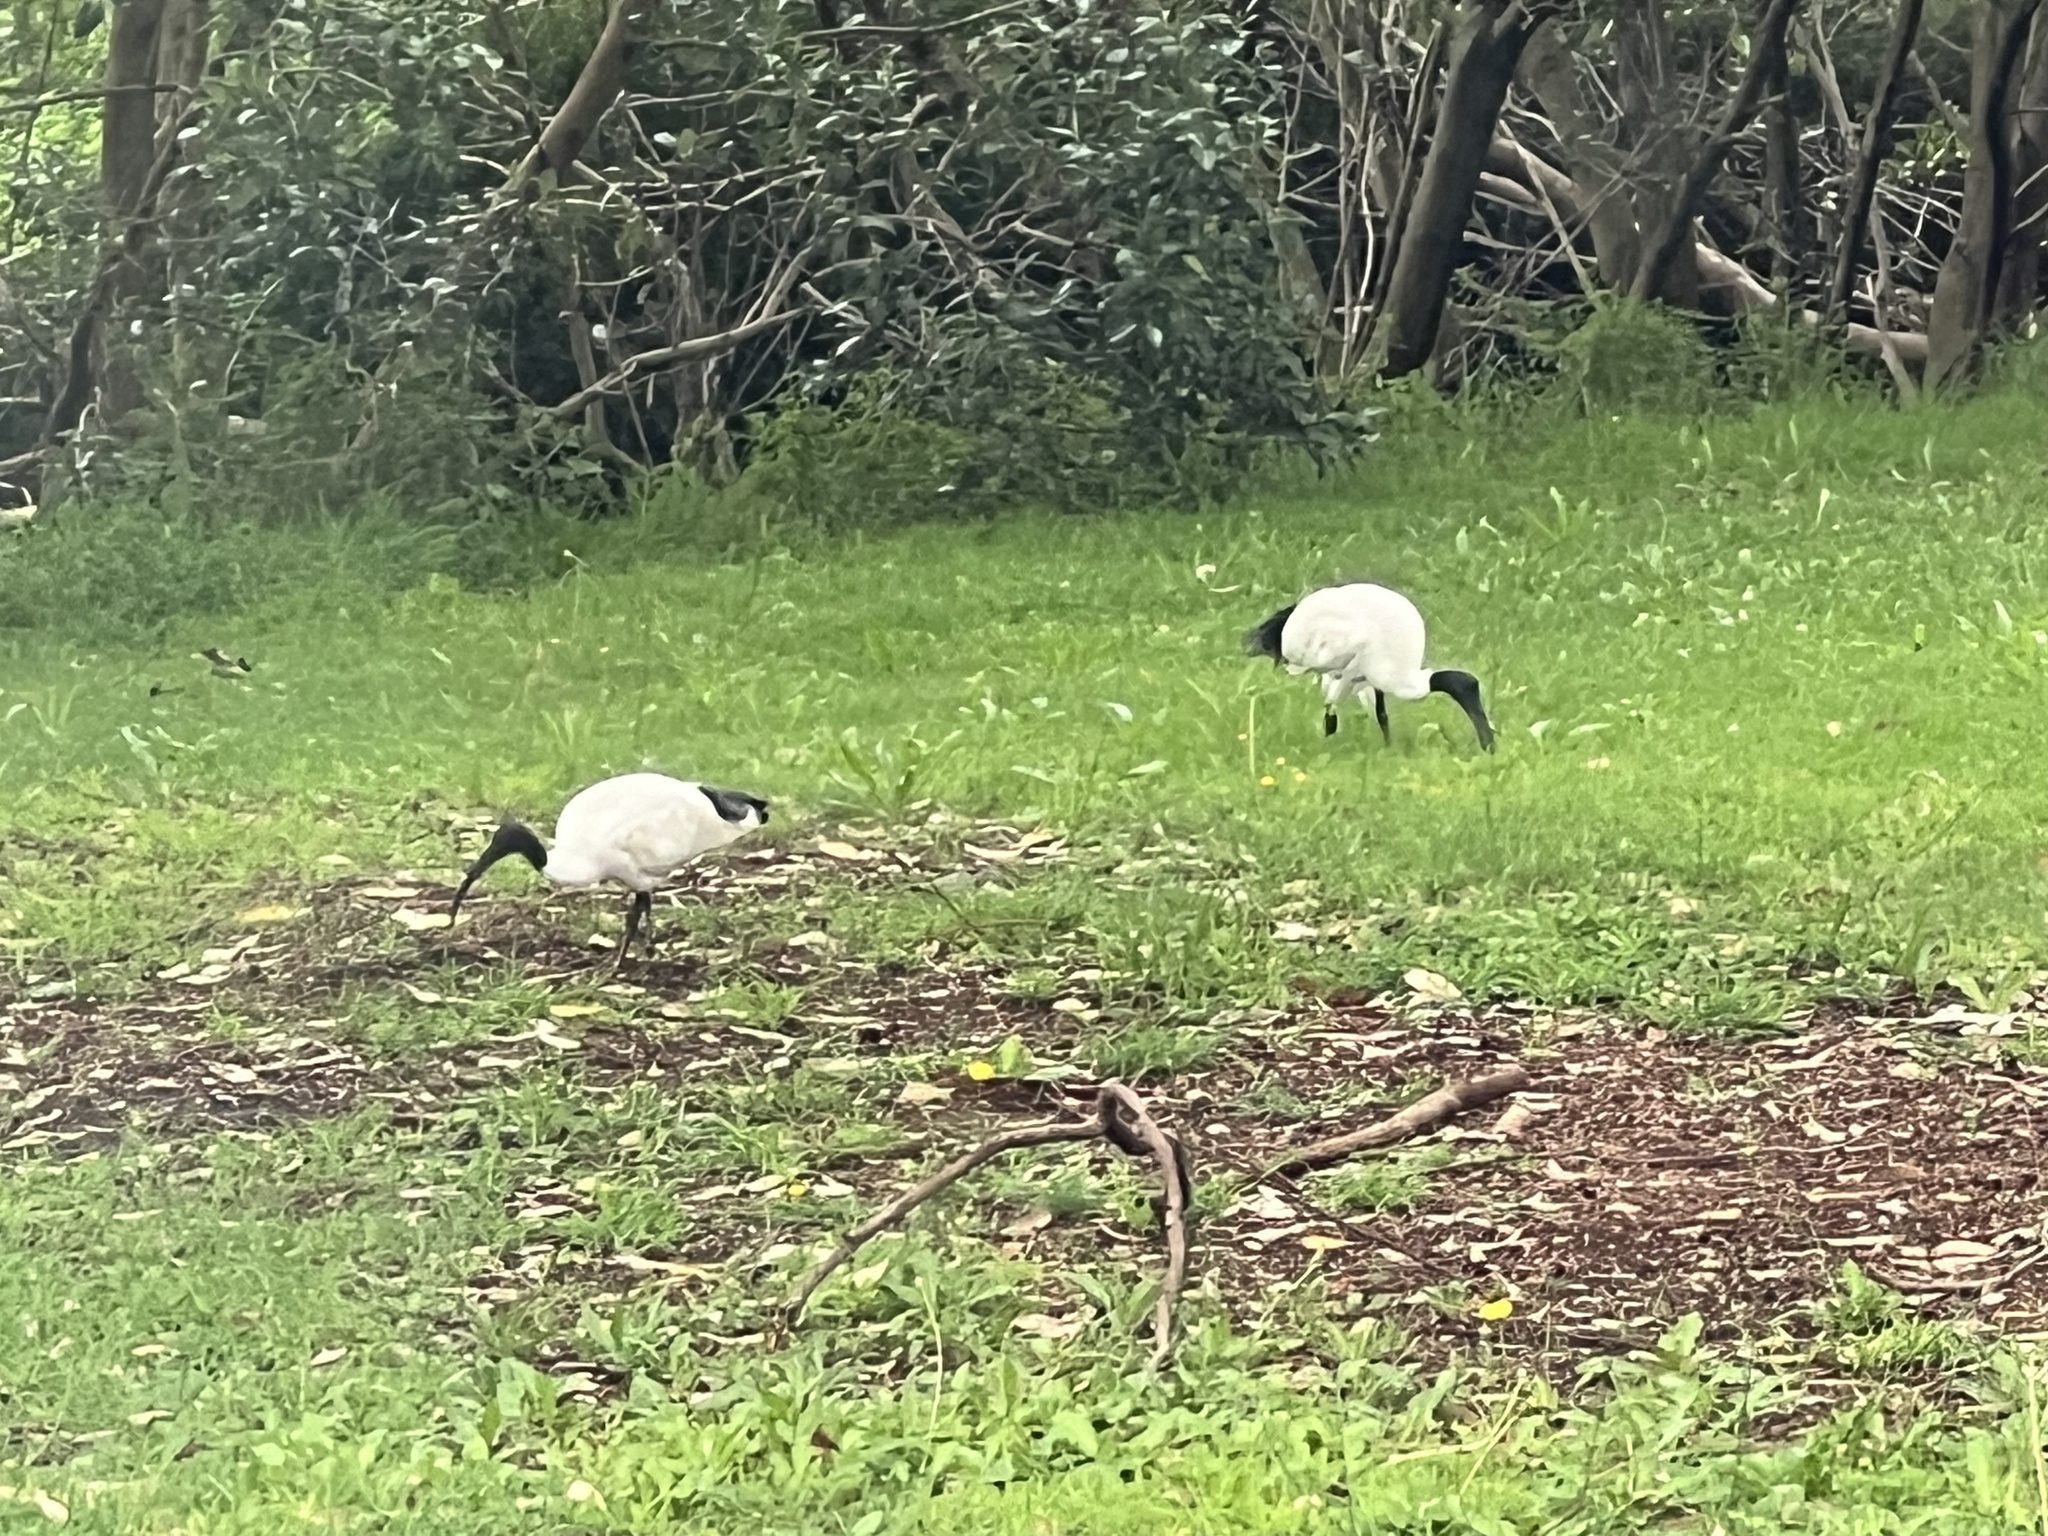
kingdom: Animalia
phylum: Chordata
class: Aves
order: Pelecaniformes
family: Threskiornithidae
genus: Threskiornis
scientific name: Threskiornis molucca
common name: Australian white ibis
